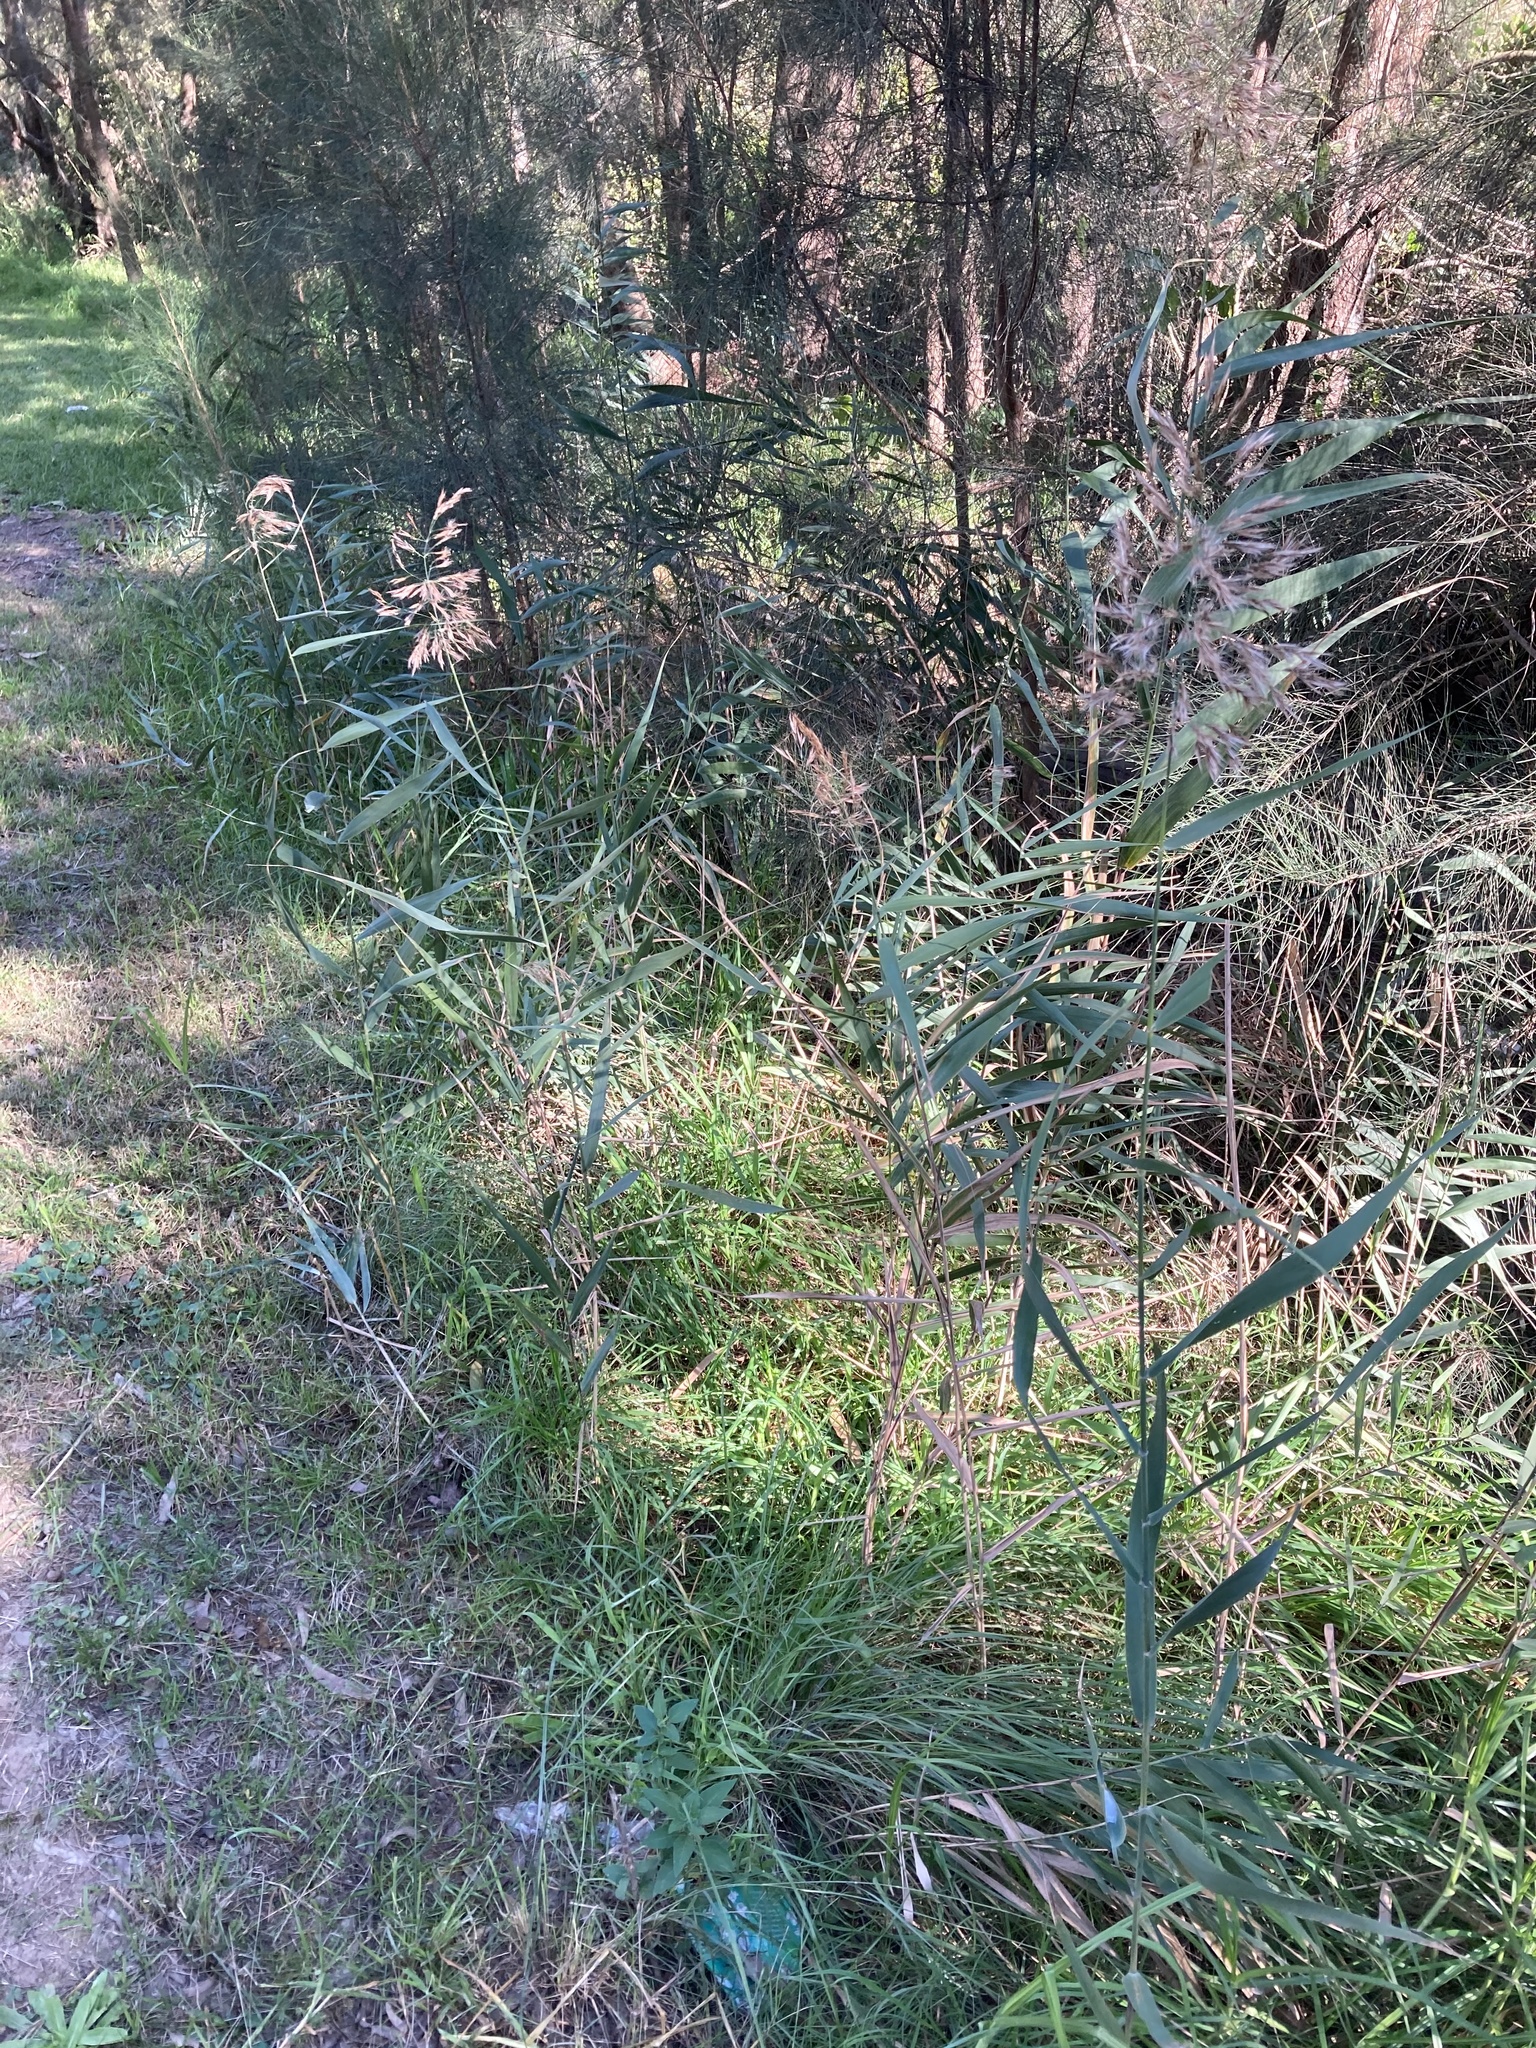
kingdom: Plantae
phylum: Tracheophyta
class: Liliopsida
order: Poales
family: Poaceae
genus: Phragmites
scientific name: Phragmites australis
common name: Common reed
